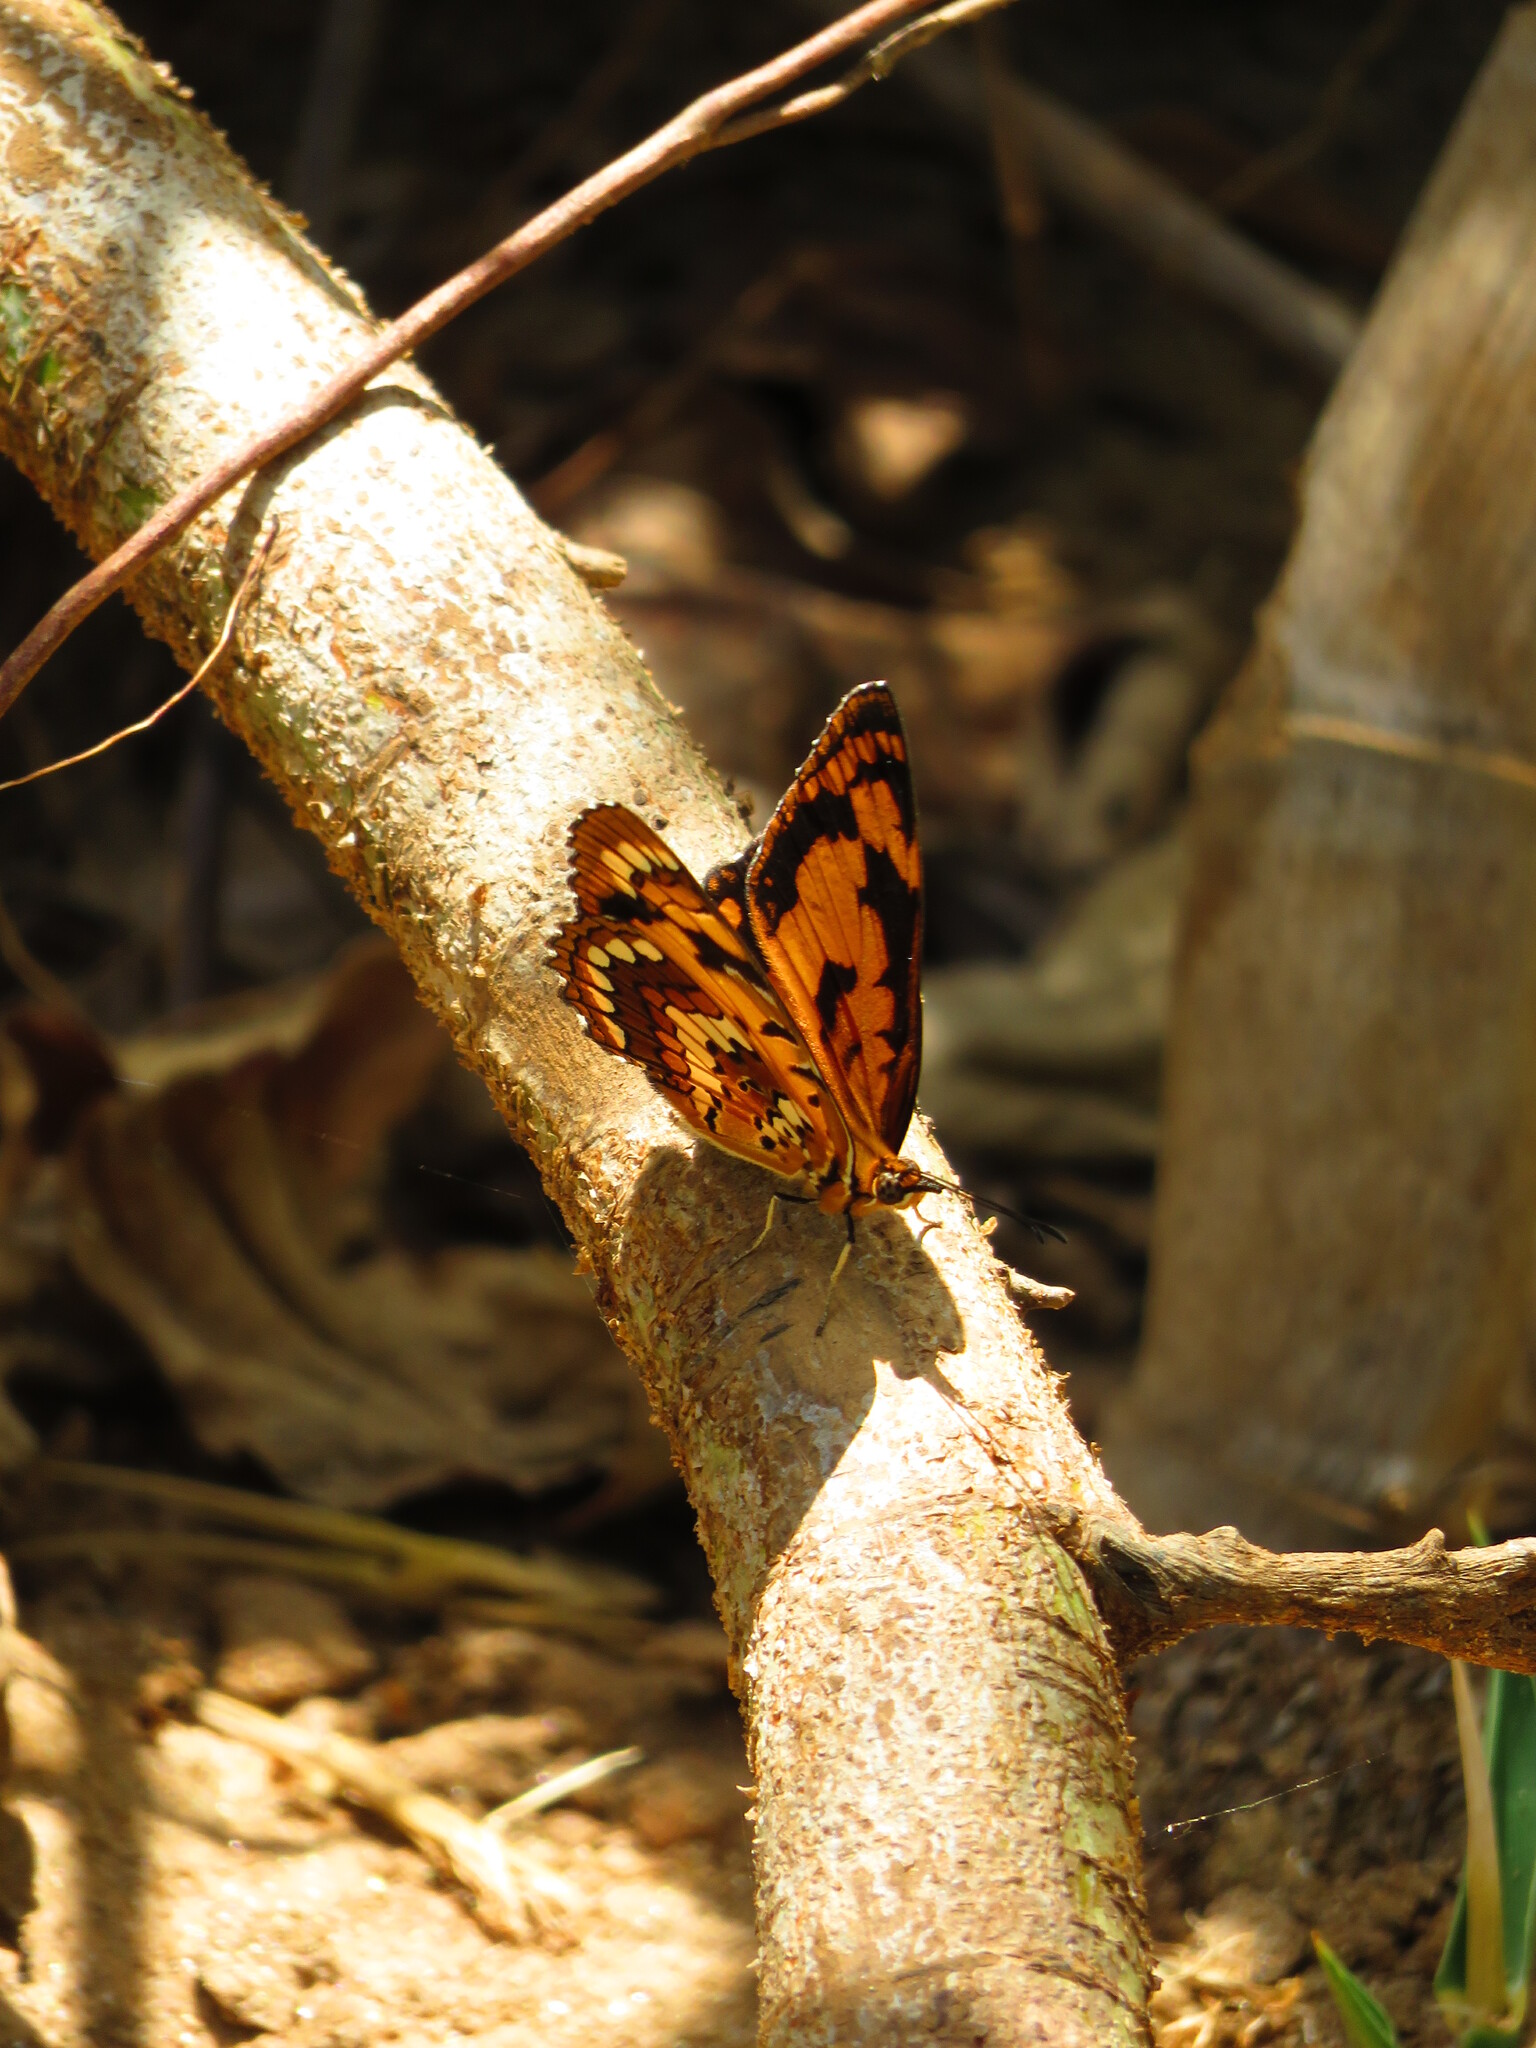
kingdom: Animalia
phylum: Arthropoda
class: Insecta
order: Lepidoptera
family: Nymphalidae
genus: Byblia
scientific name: Byblia anvatara
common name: African joker
